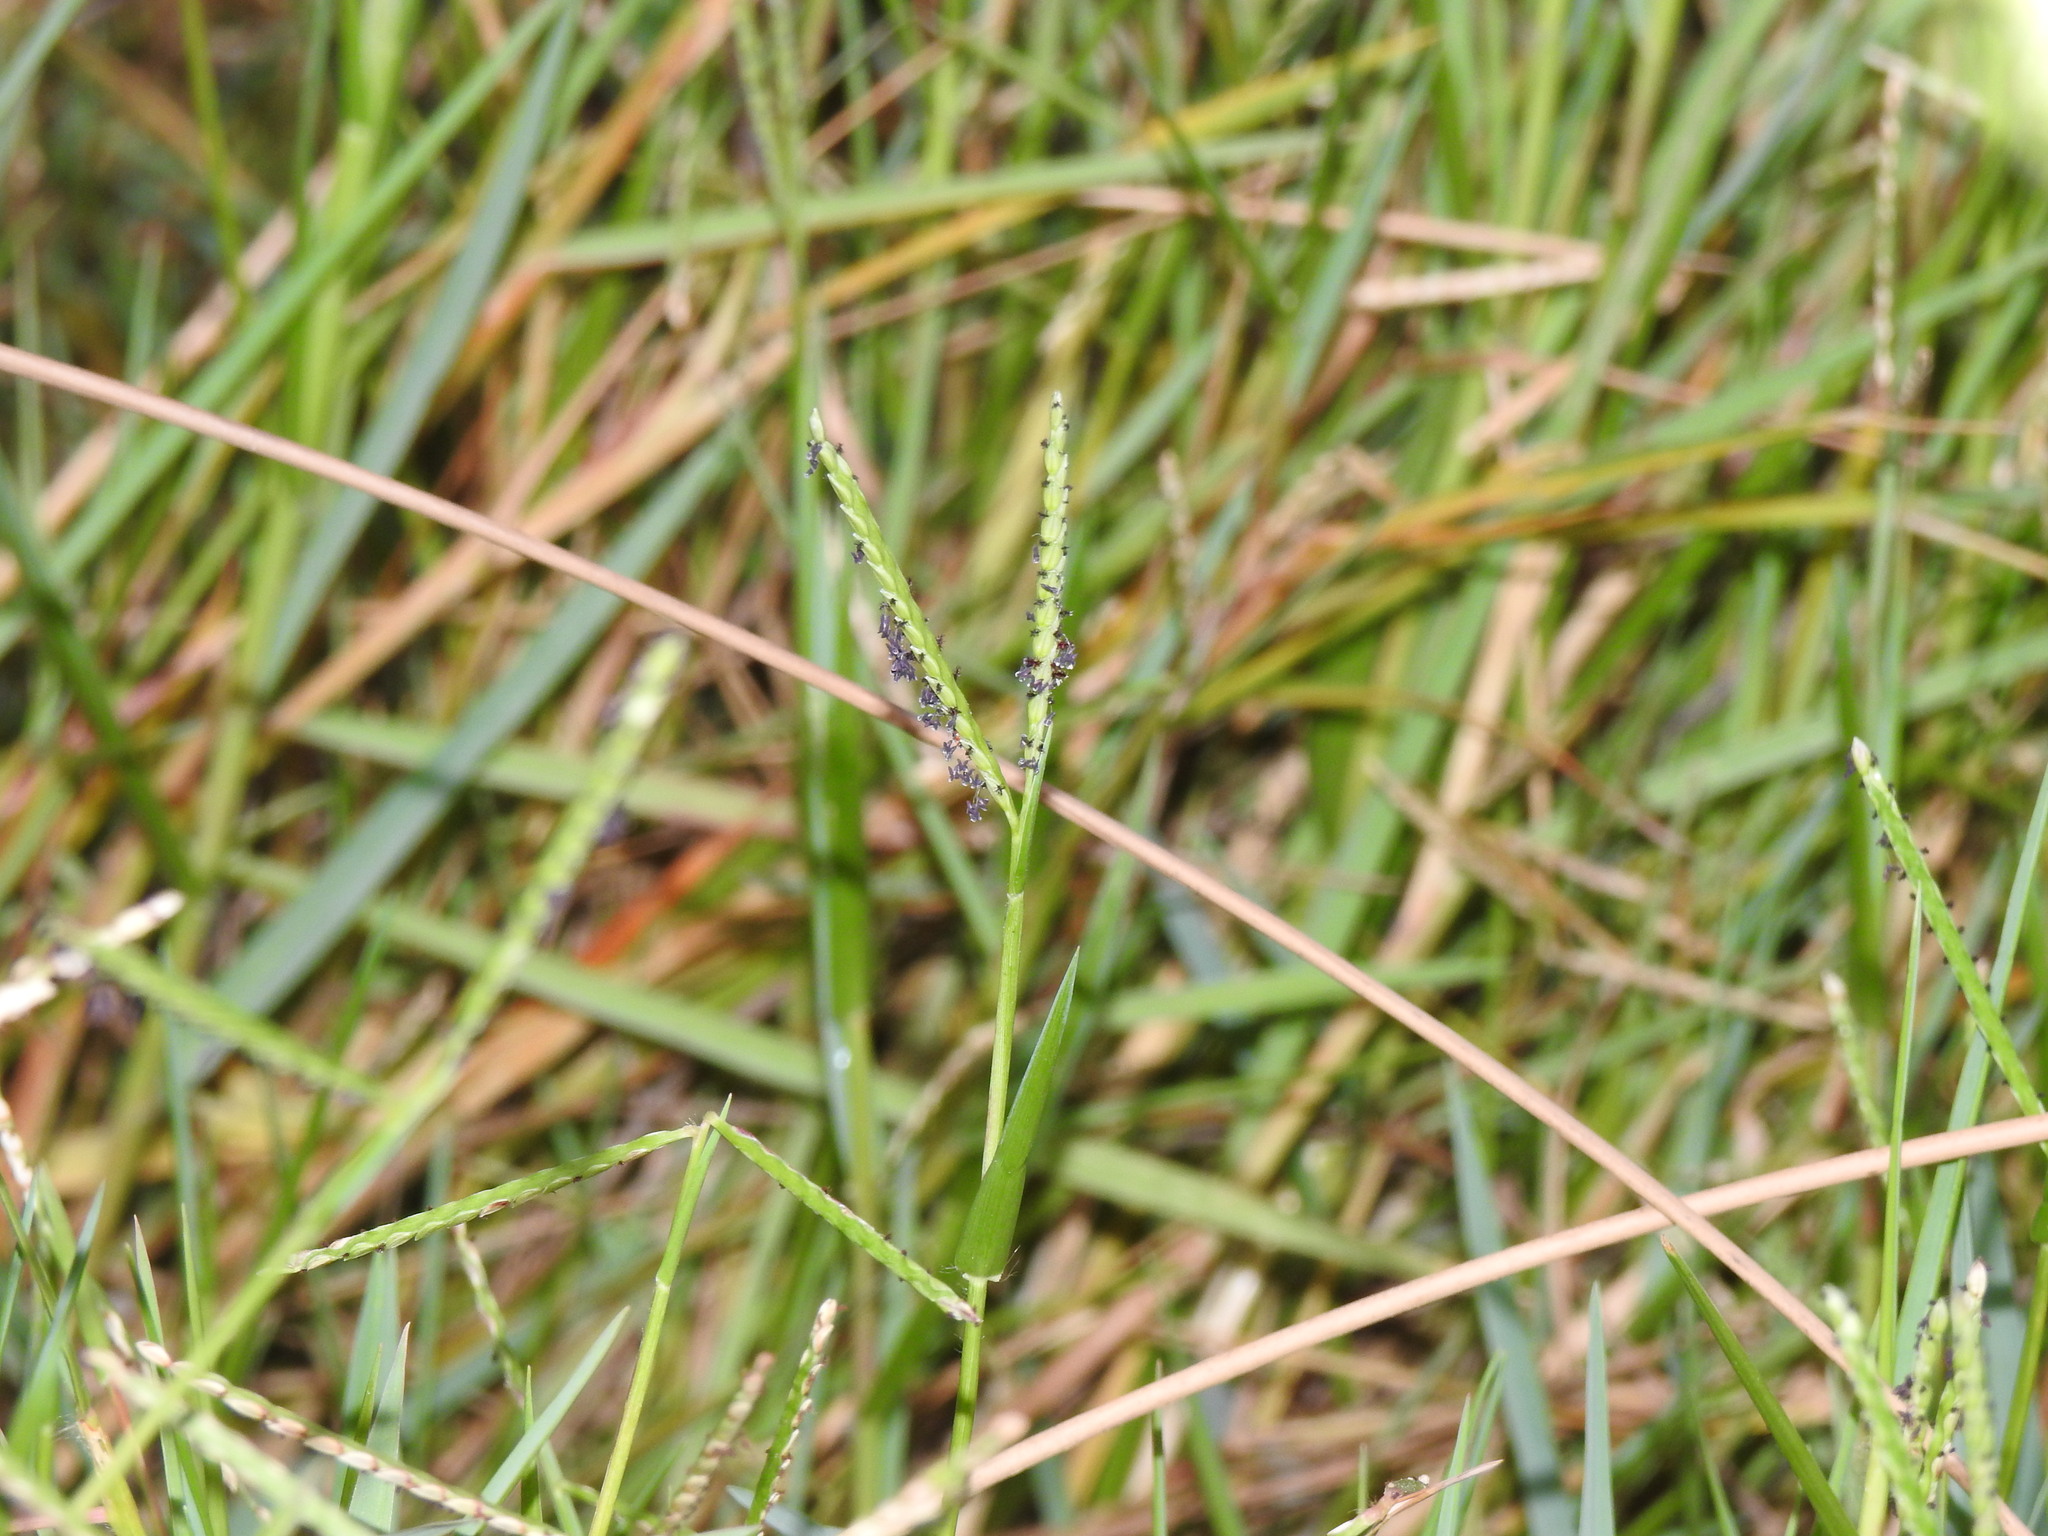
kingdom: Plantae
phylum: Tracheophyta
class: Liliopsida
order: Poales
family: Poaceae
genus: Paspalum
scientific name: Paspalum distichum
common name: Knotgrass
